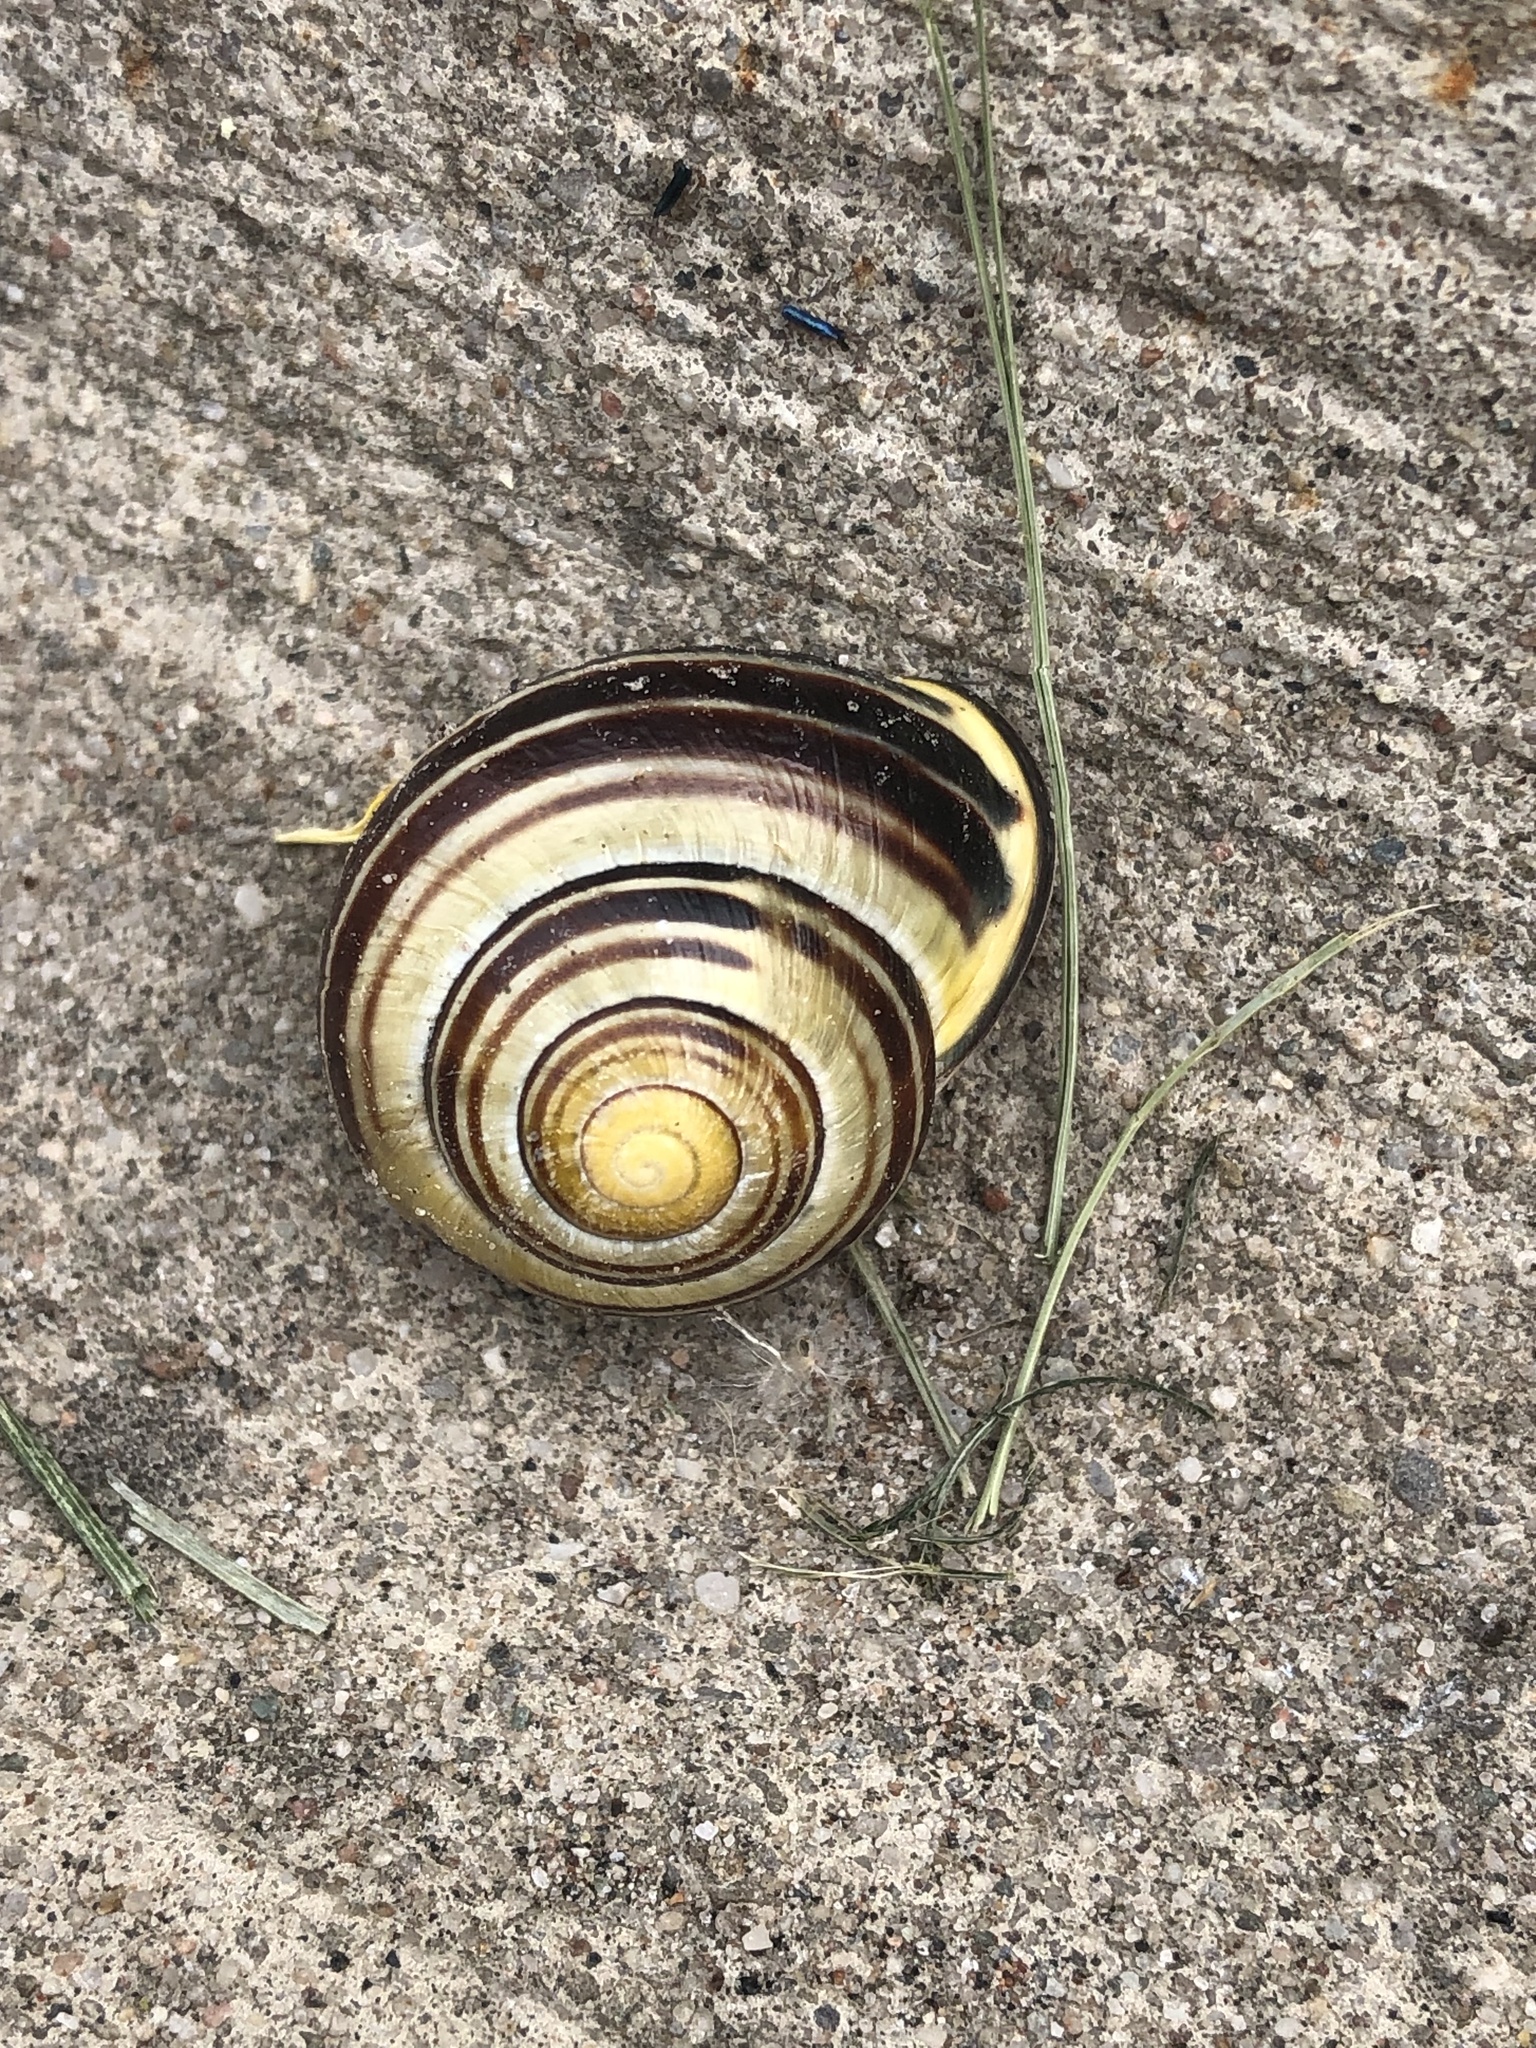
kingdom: Animalia
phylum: Mollusca
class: Gastropoda
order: Stylommatophora
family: Helicidae
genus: Cepaea
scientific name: Cepaea nemoralis
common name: Grovesnail
